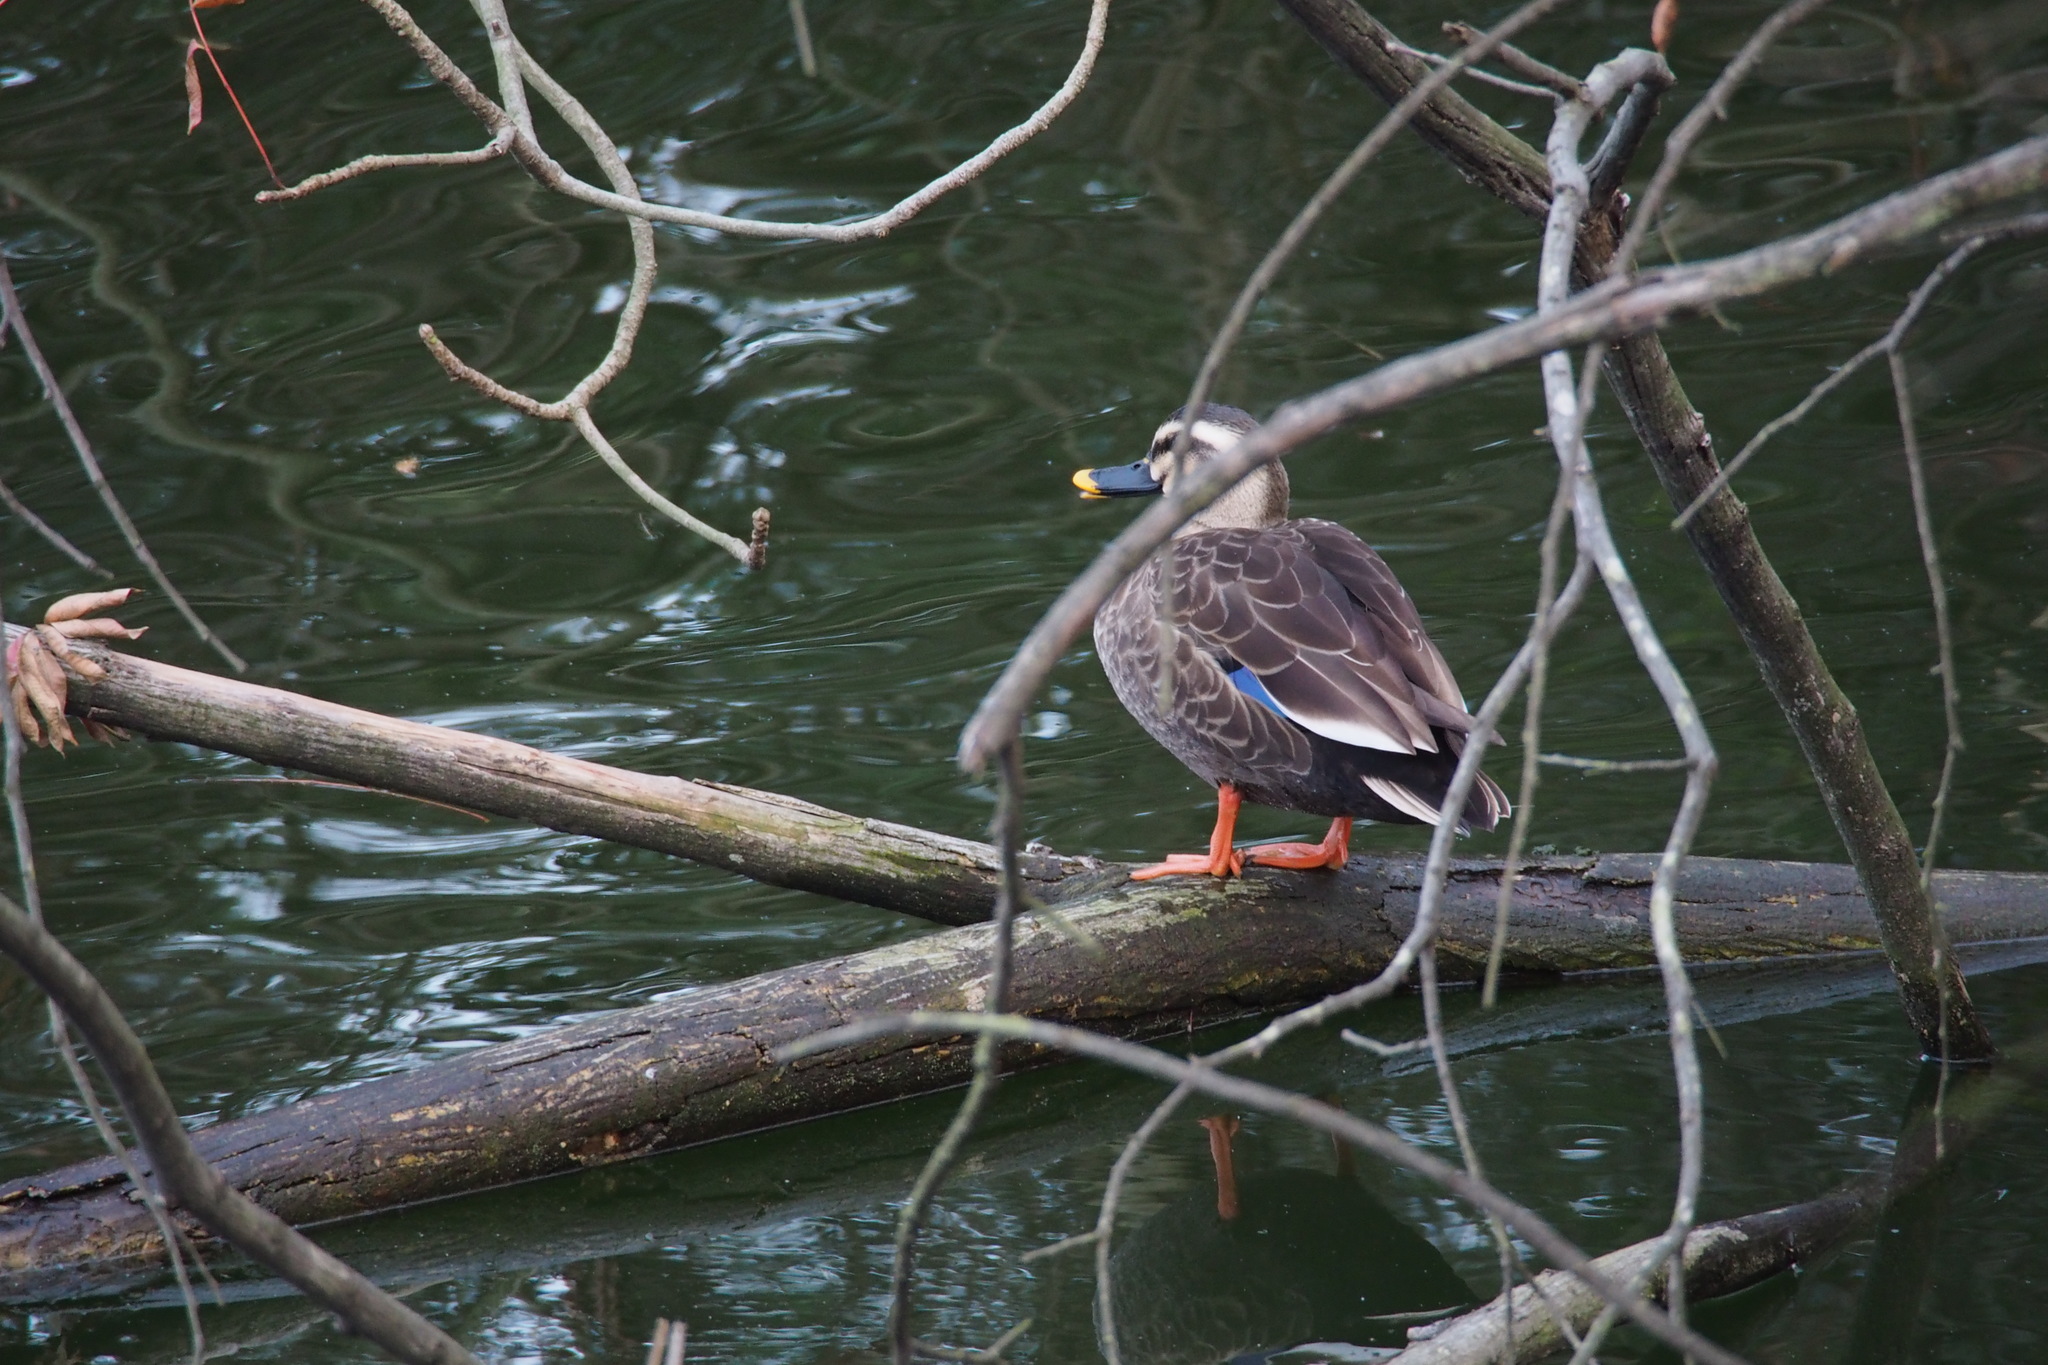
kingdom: Animalia
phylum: Chordata
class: Aves
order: Anseriformes
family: Anatidae
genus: Anas
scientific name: Anas zonorhyncha
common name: Eastern spot-billed duck
